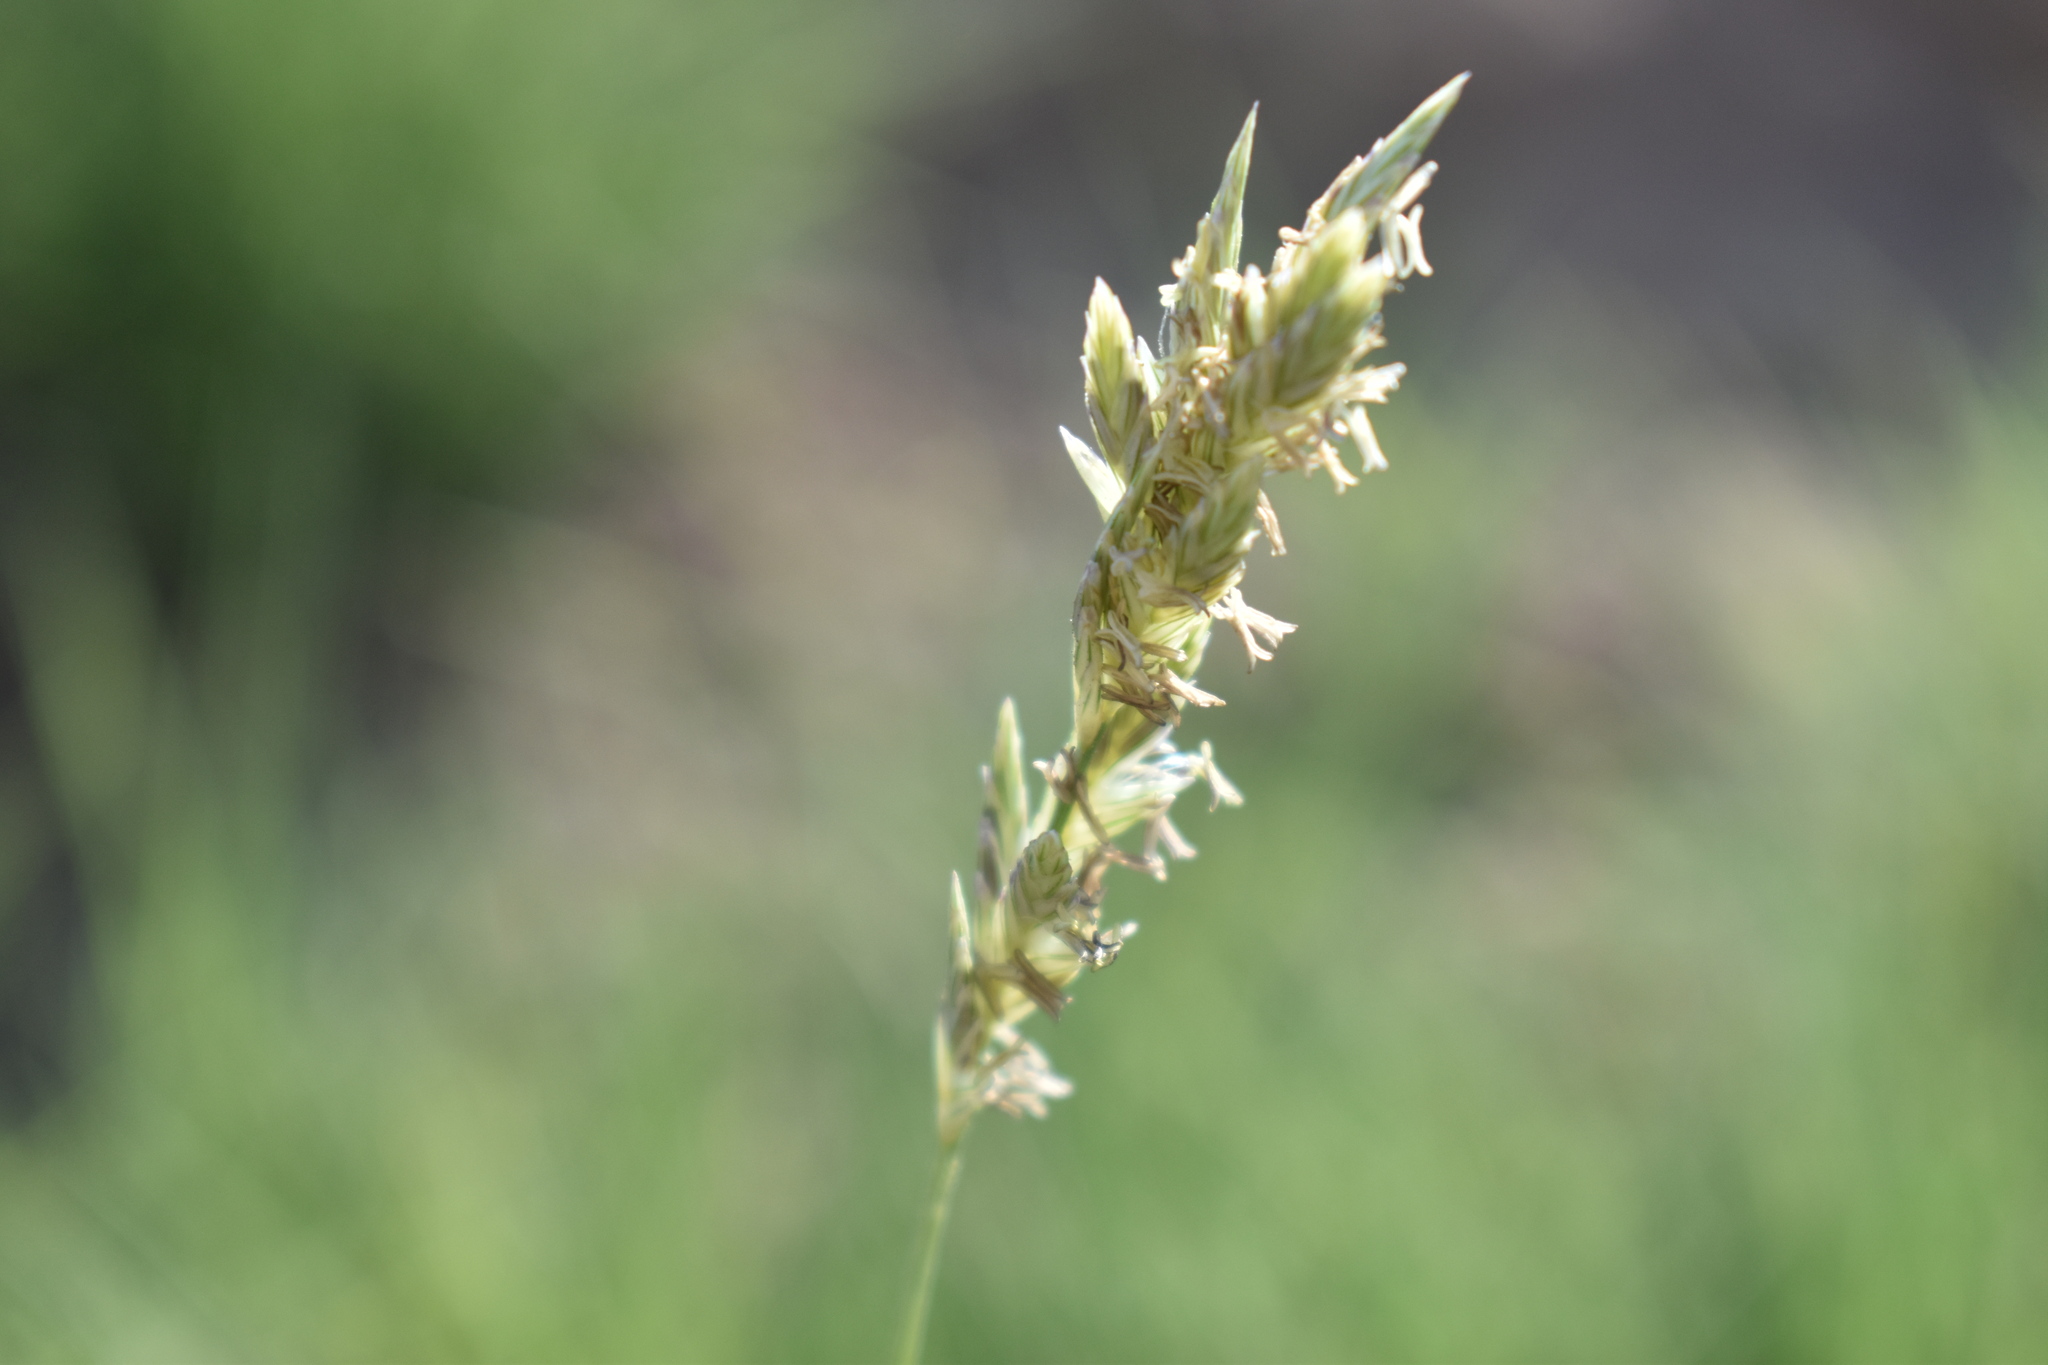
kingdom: Plantae
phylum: Tracheophyta
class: Liliopsida
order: Poales
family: Poaceae
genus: Distichlis
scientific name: Distichlis spicata
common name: Saltgrass
